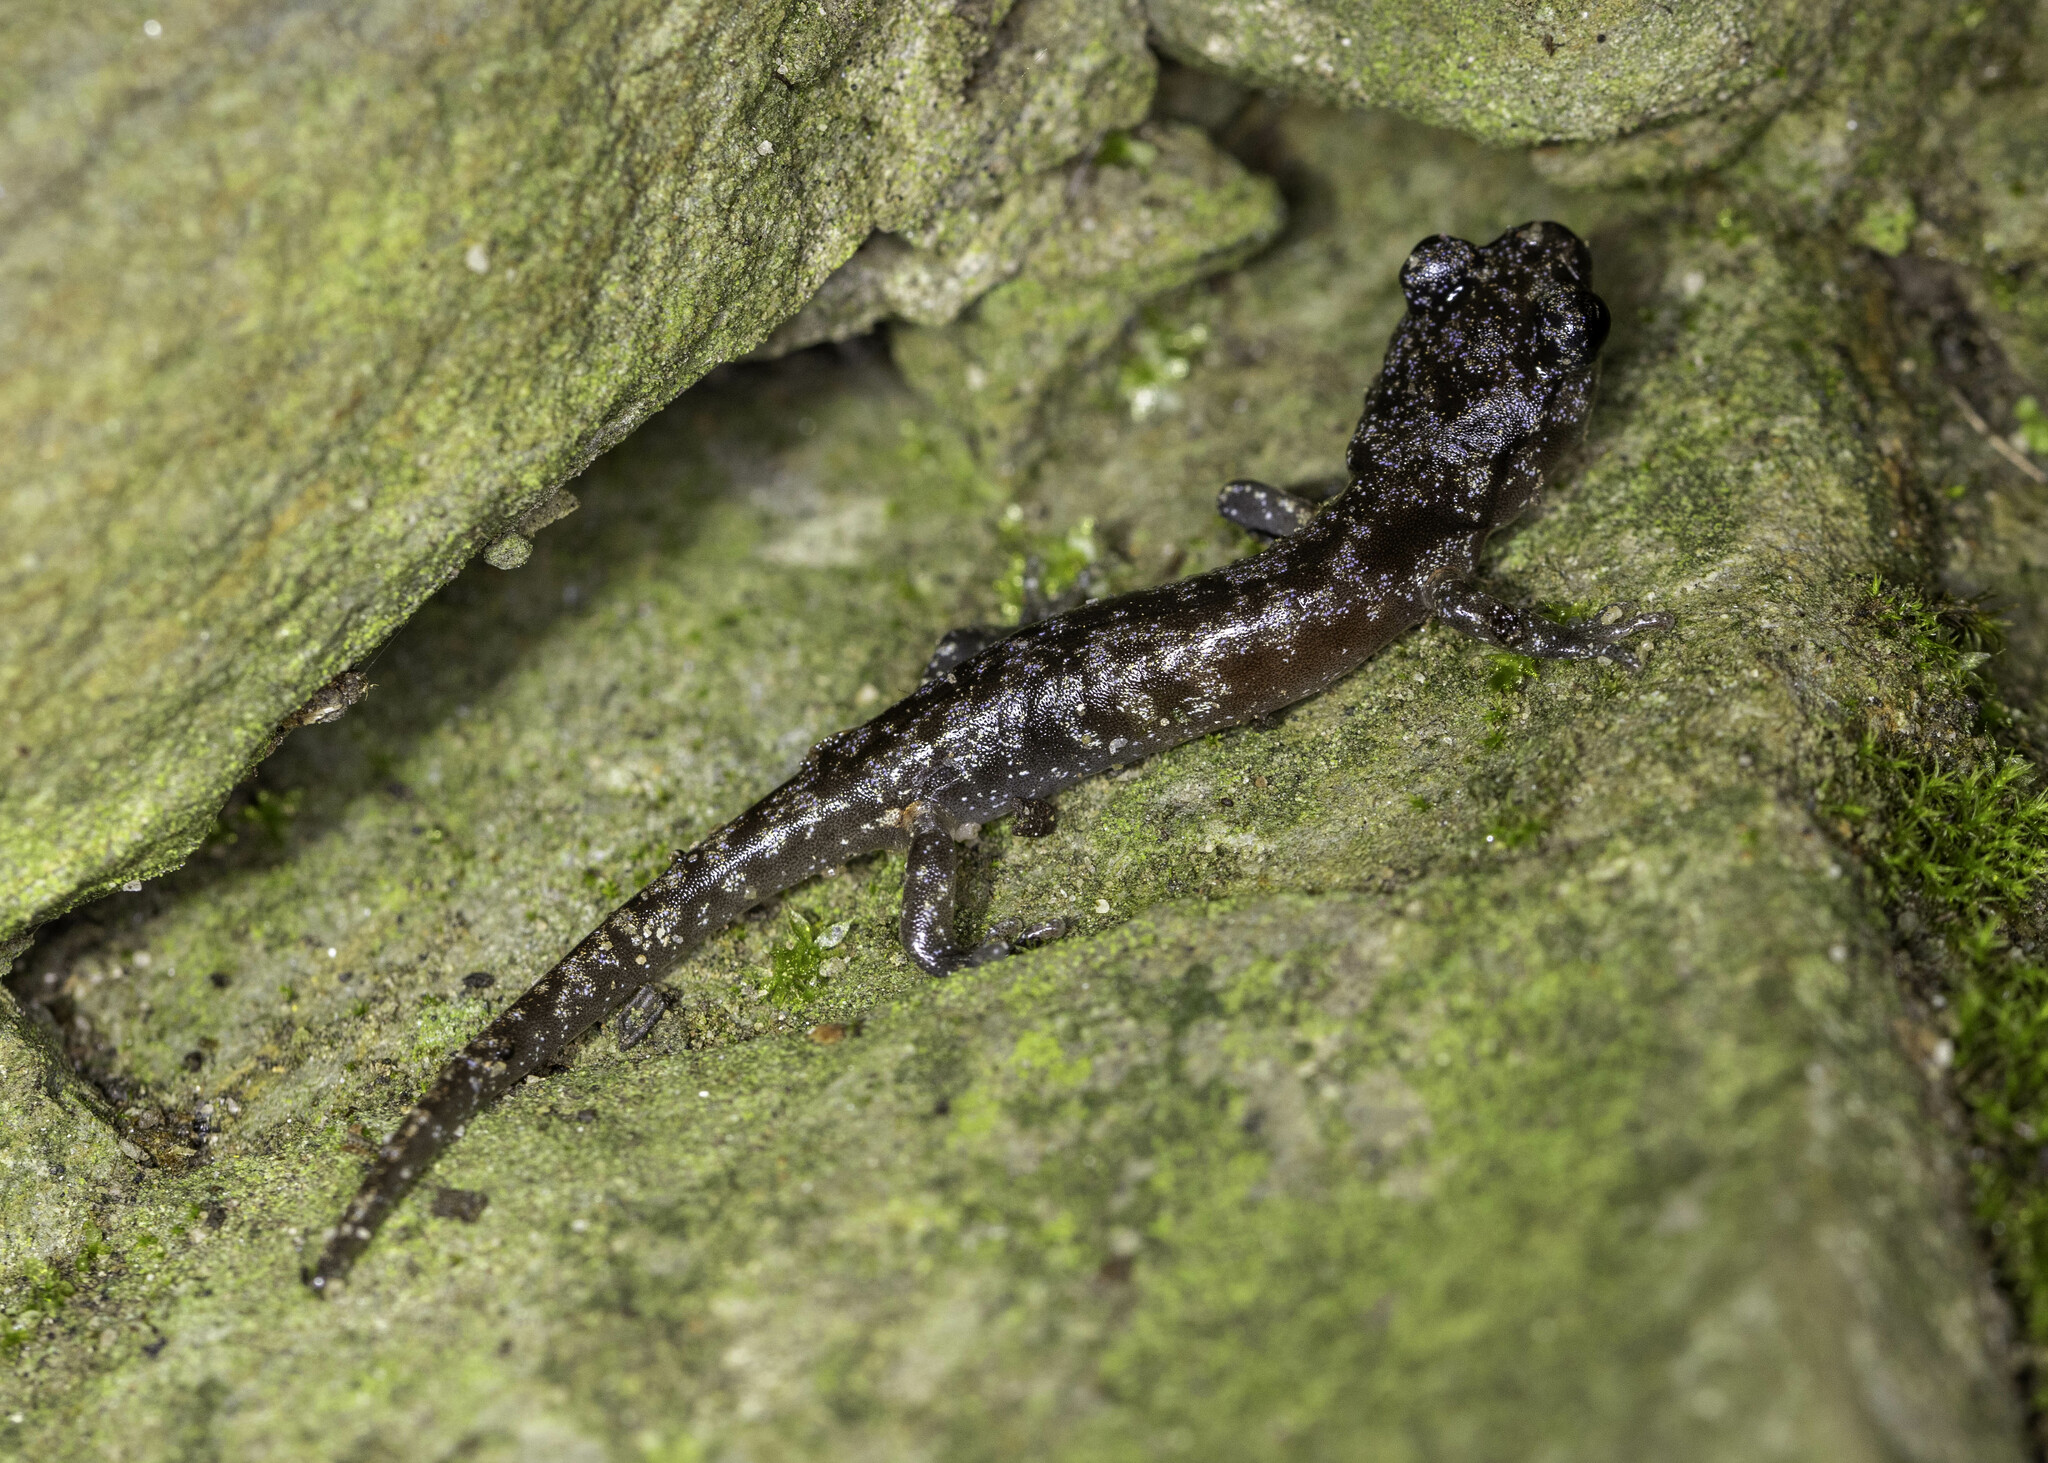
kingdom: Animalia
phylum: Chordata
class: Amphibia
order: Caudata
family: Plethodontidae
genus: Aneides
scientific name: Aneides lugubris
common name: Arboreal salamander
